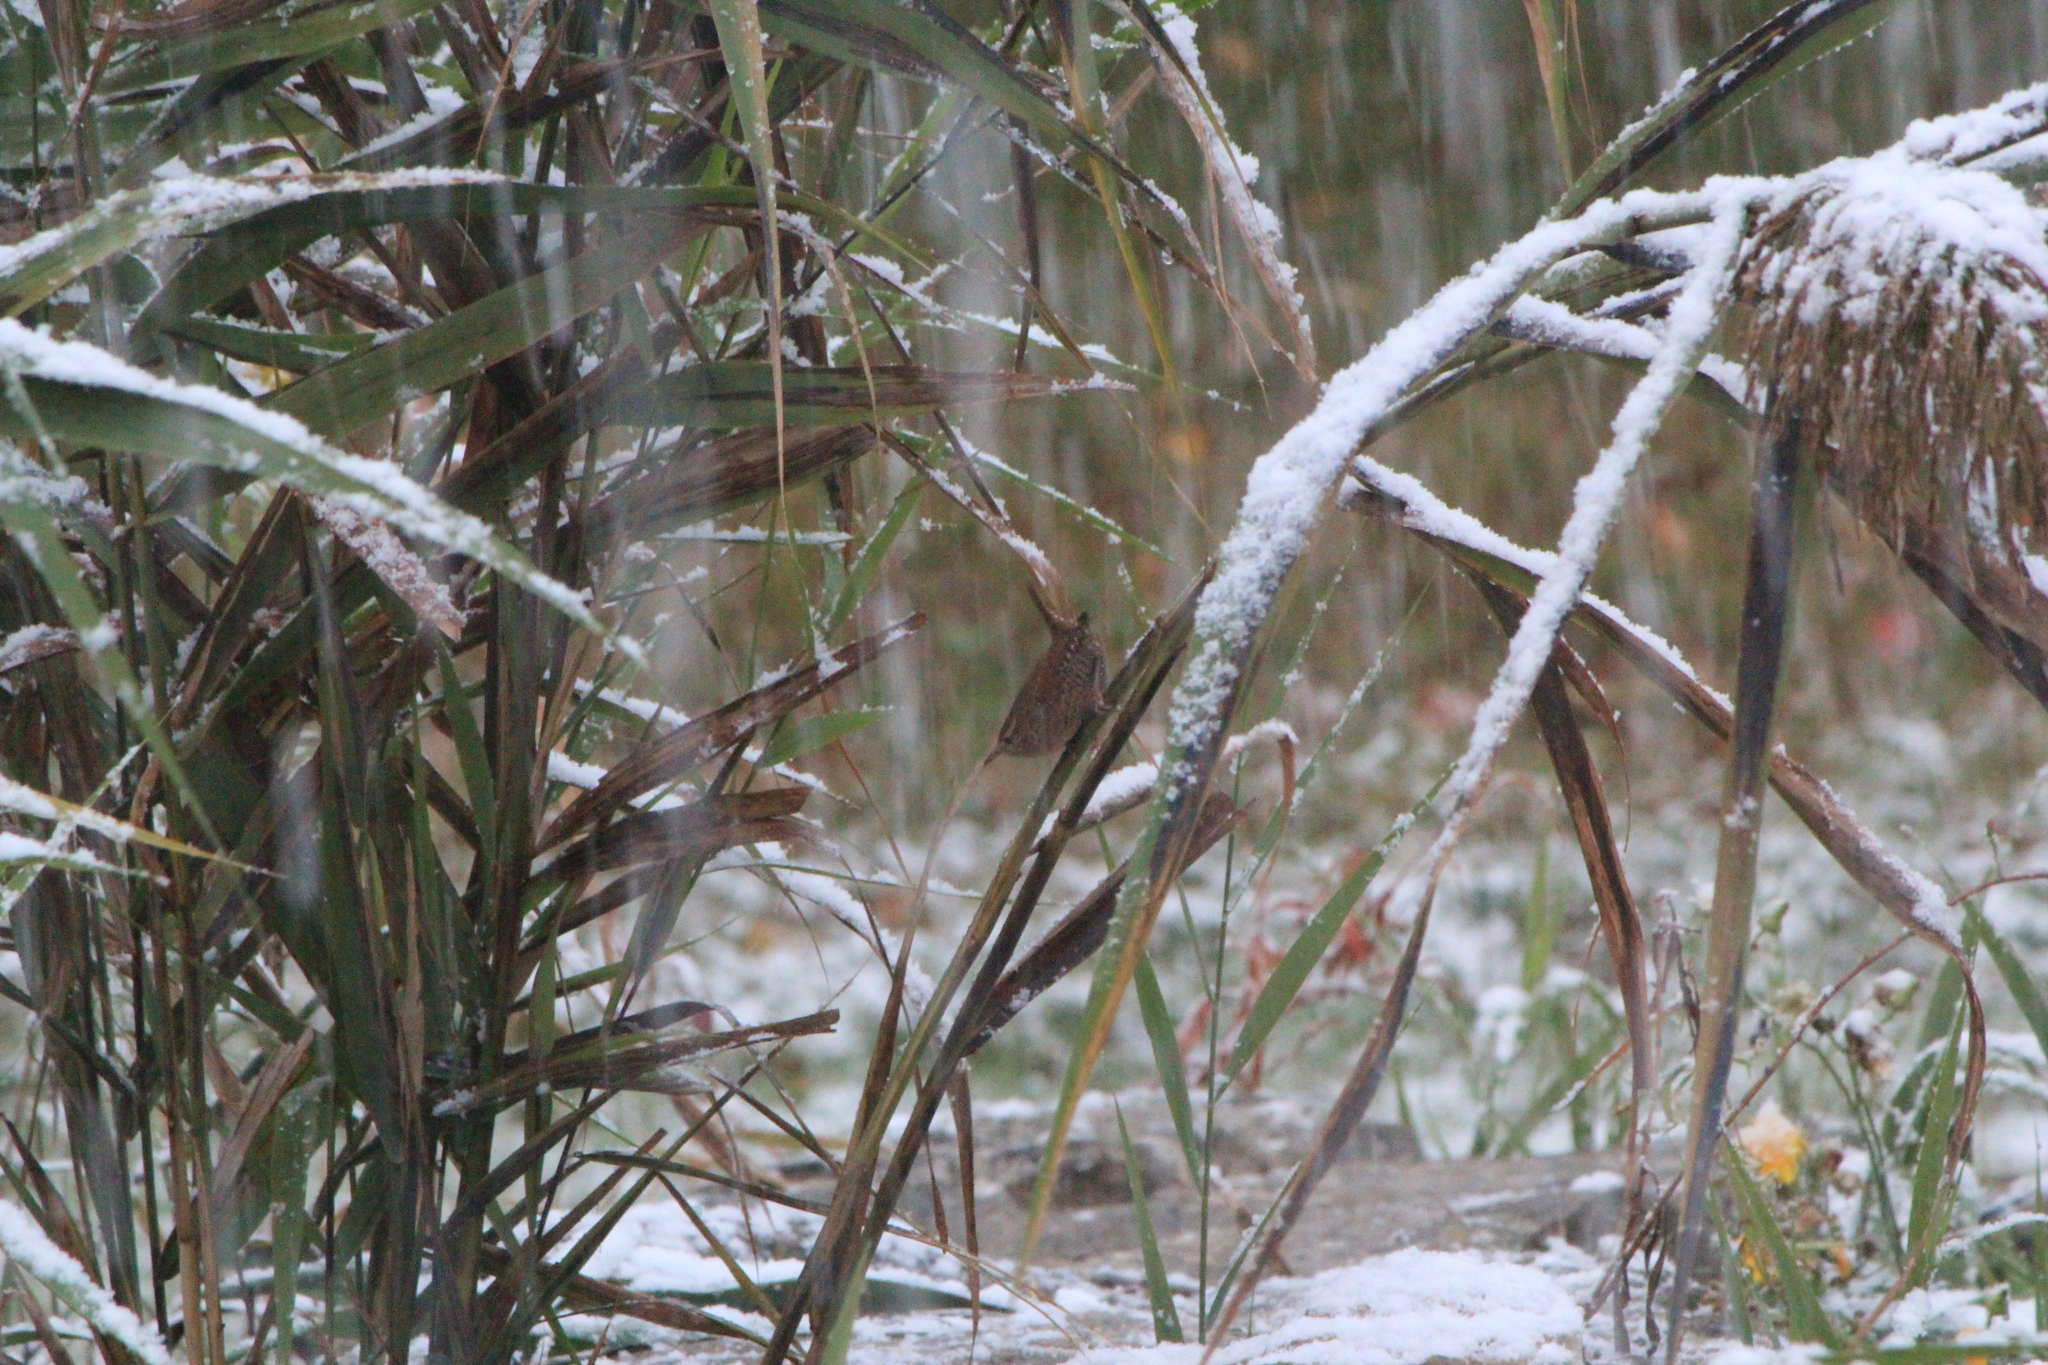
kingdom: Animalia
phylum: Chordata
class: Aves
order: Passeriformes
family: Troglodytidae
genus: Troglodytes
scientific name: Troglodytes hiemalis
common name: Winter wren
